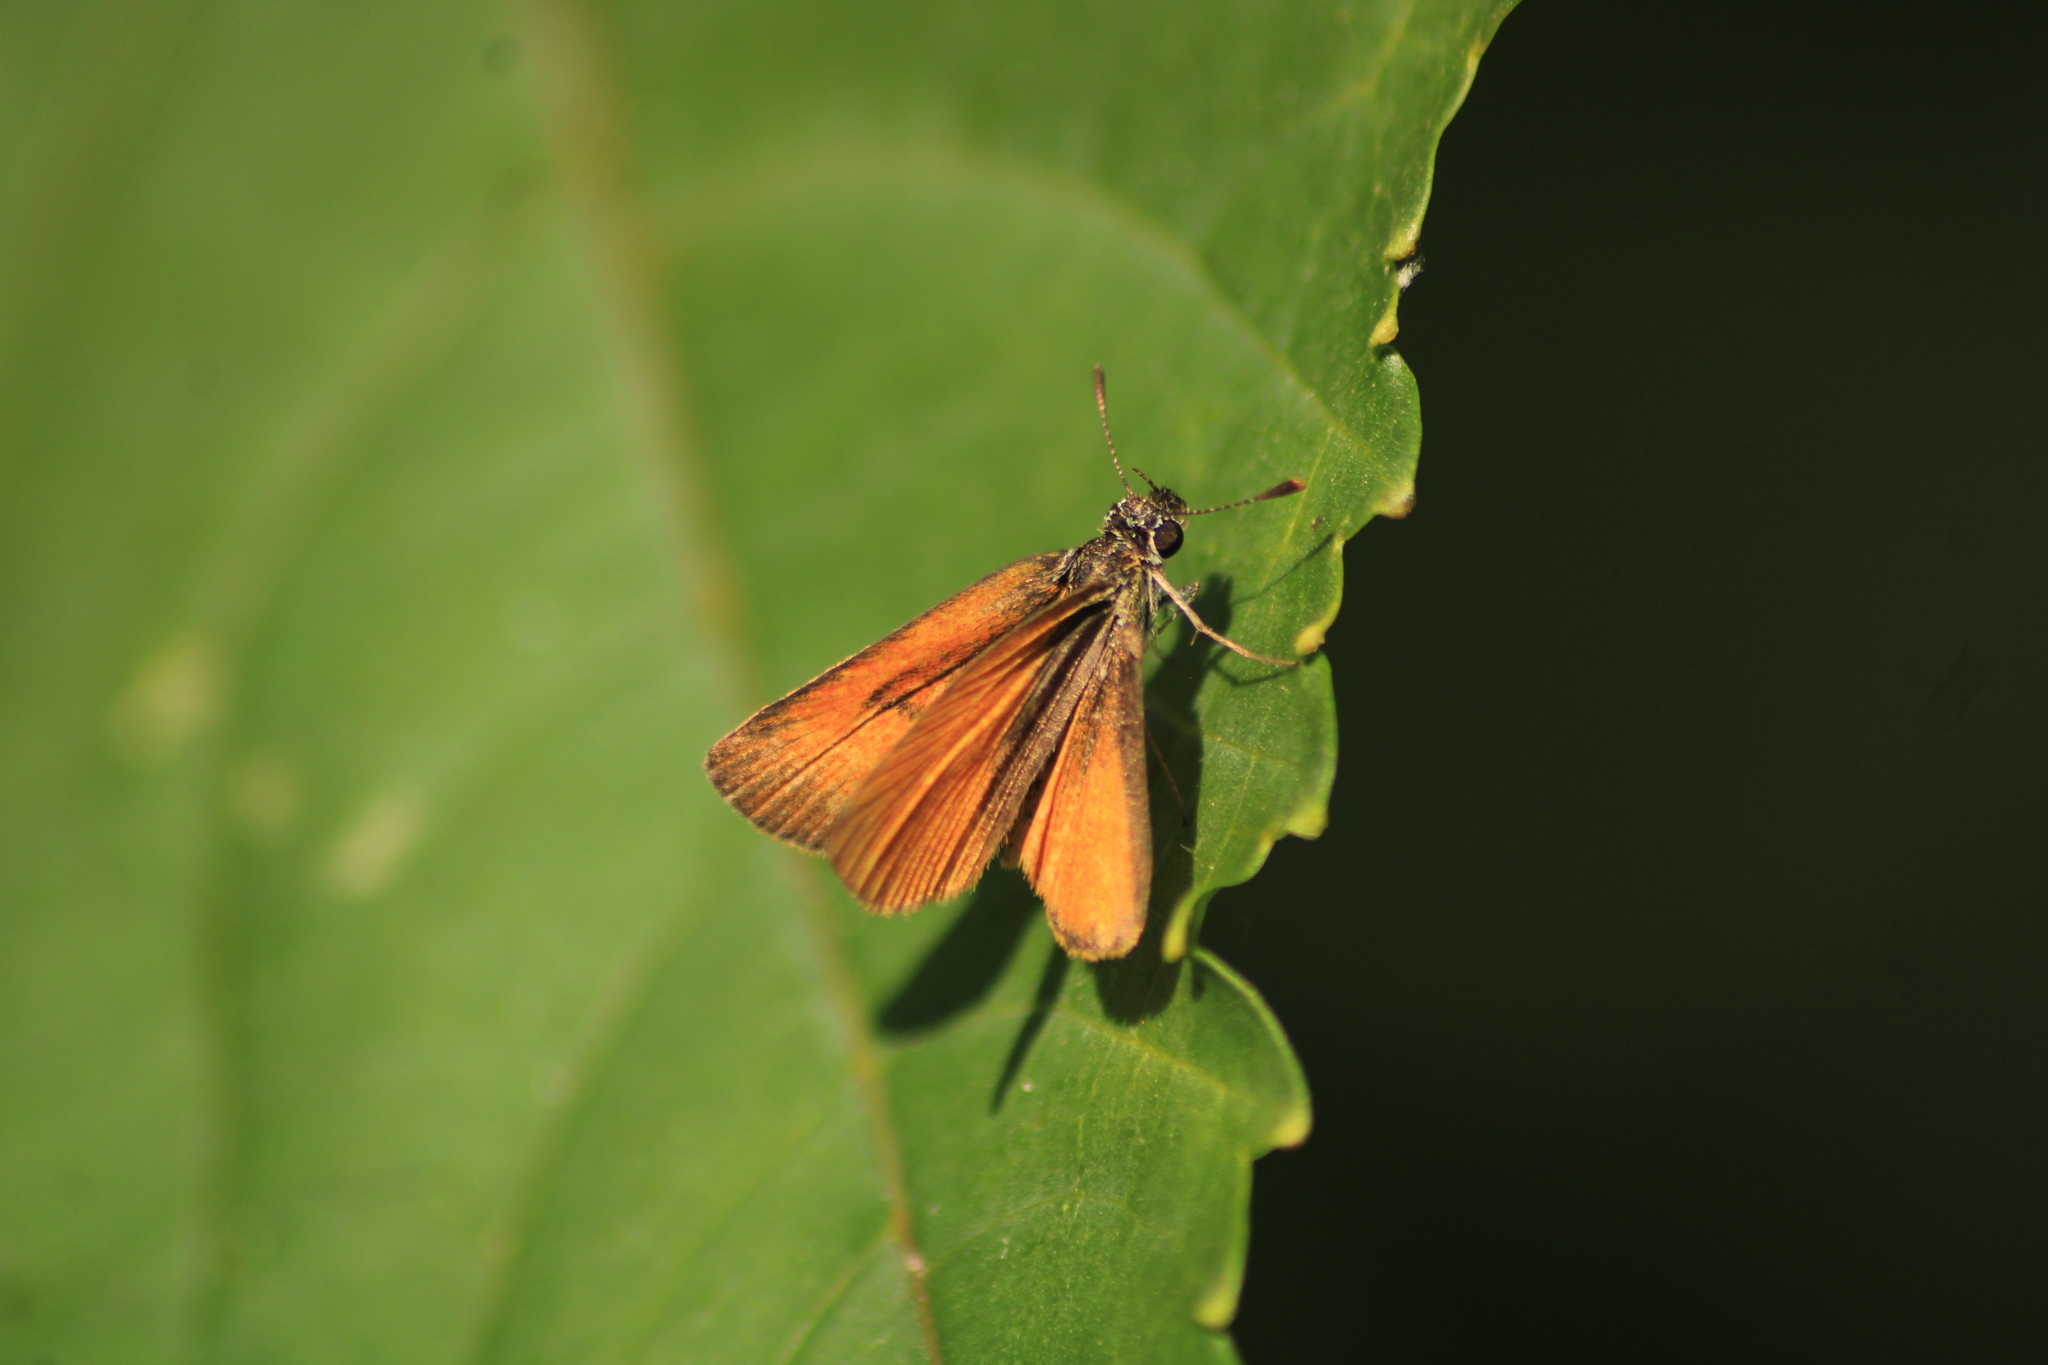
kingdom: Animalia
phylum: Arthropoda
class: Insecta
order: Lepidoptera
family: Hesperiidae
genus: Ancyloxypha
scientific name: Ancyloxypha arene
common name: Tropical least skipper
